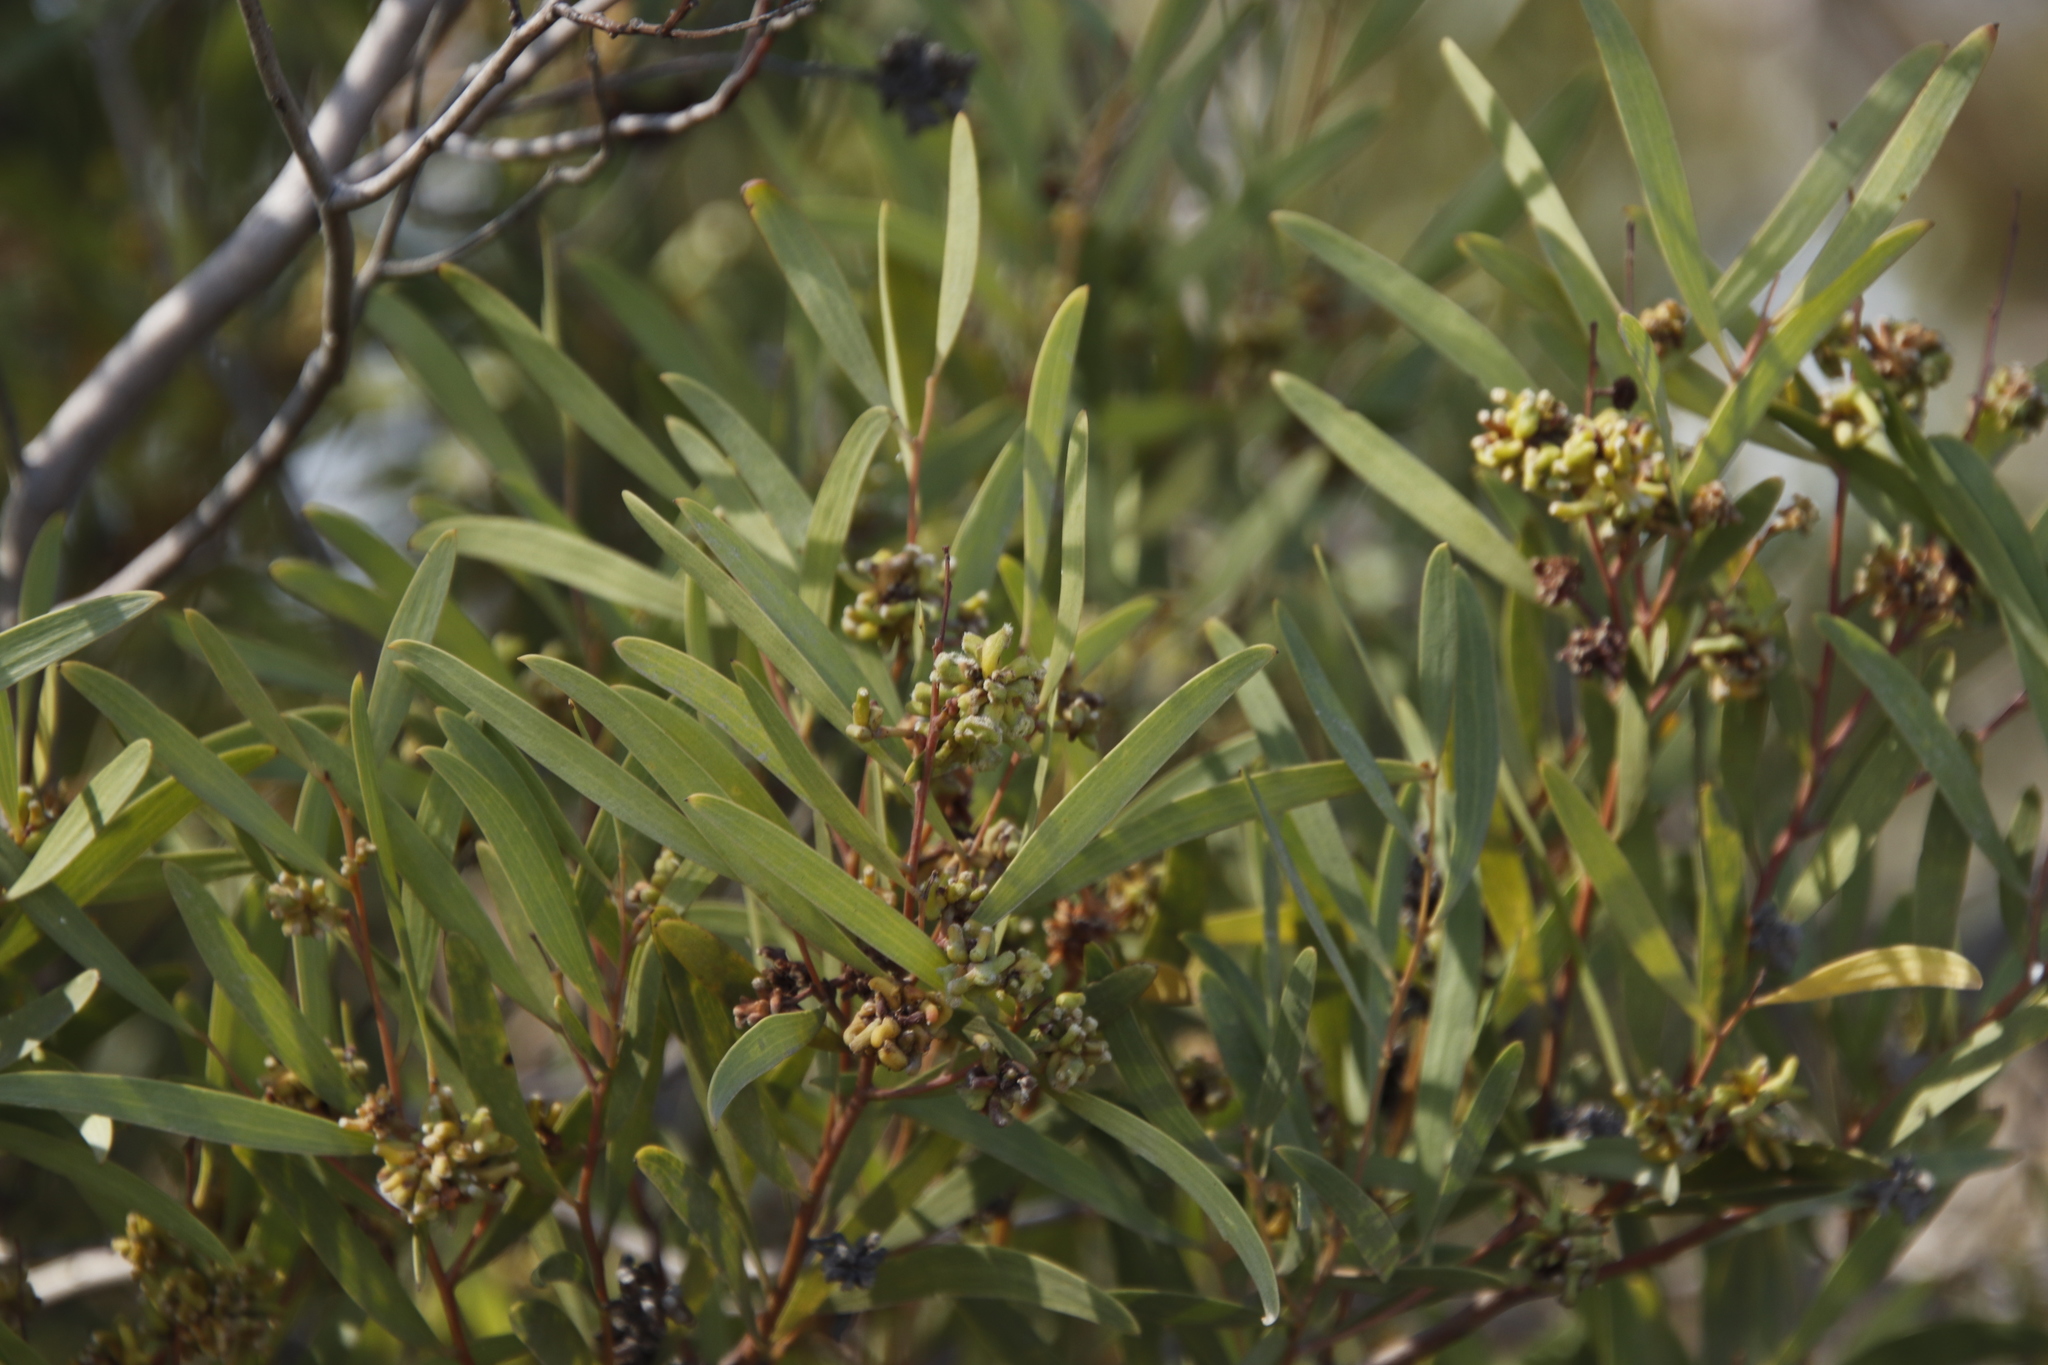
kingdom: Animalia
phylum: Arthropoda
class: Insecta
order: Diptera
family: Cecidomyiidae
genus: Dasineura
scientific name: Dasineura dielsi
